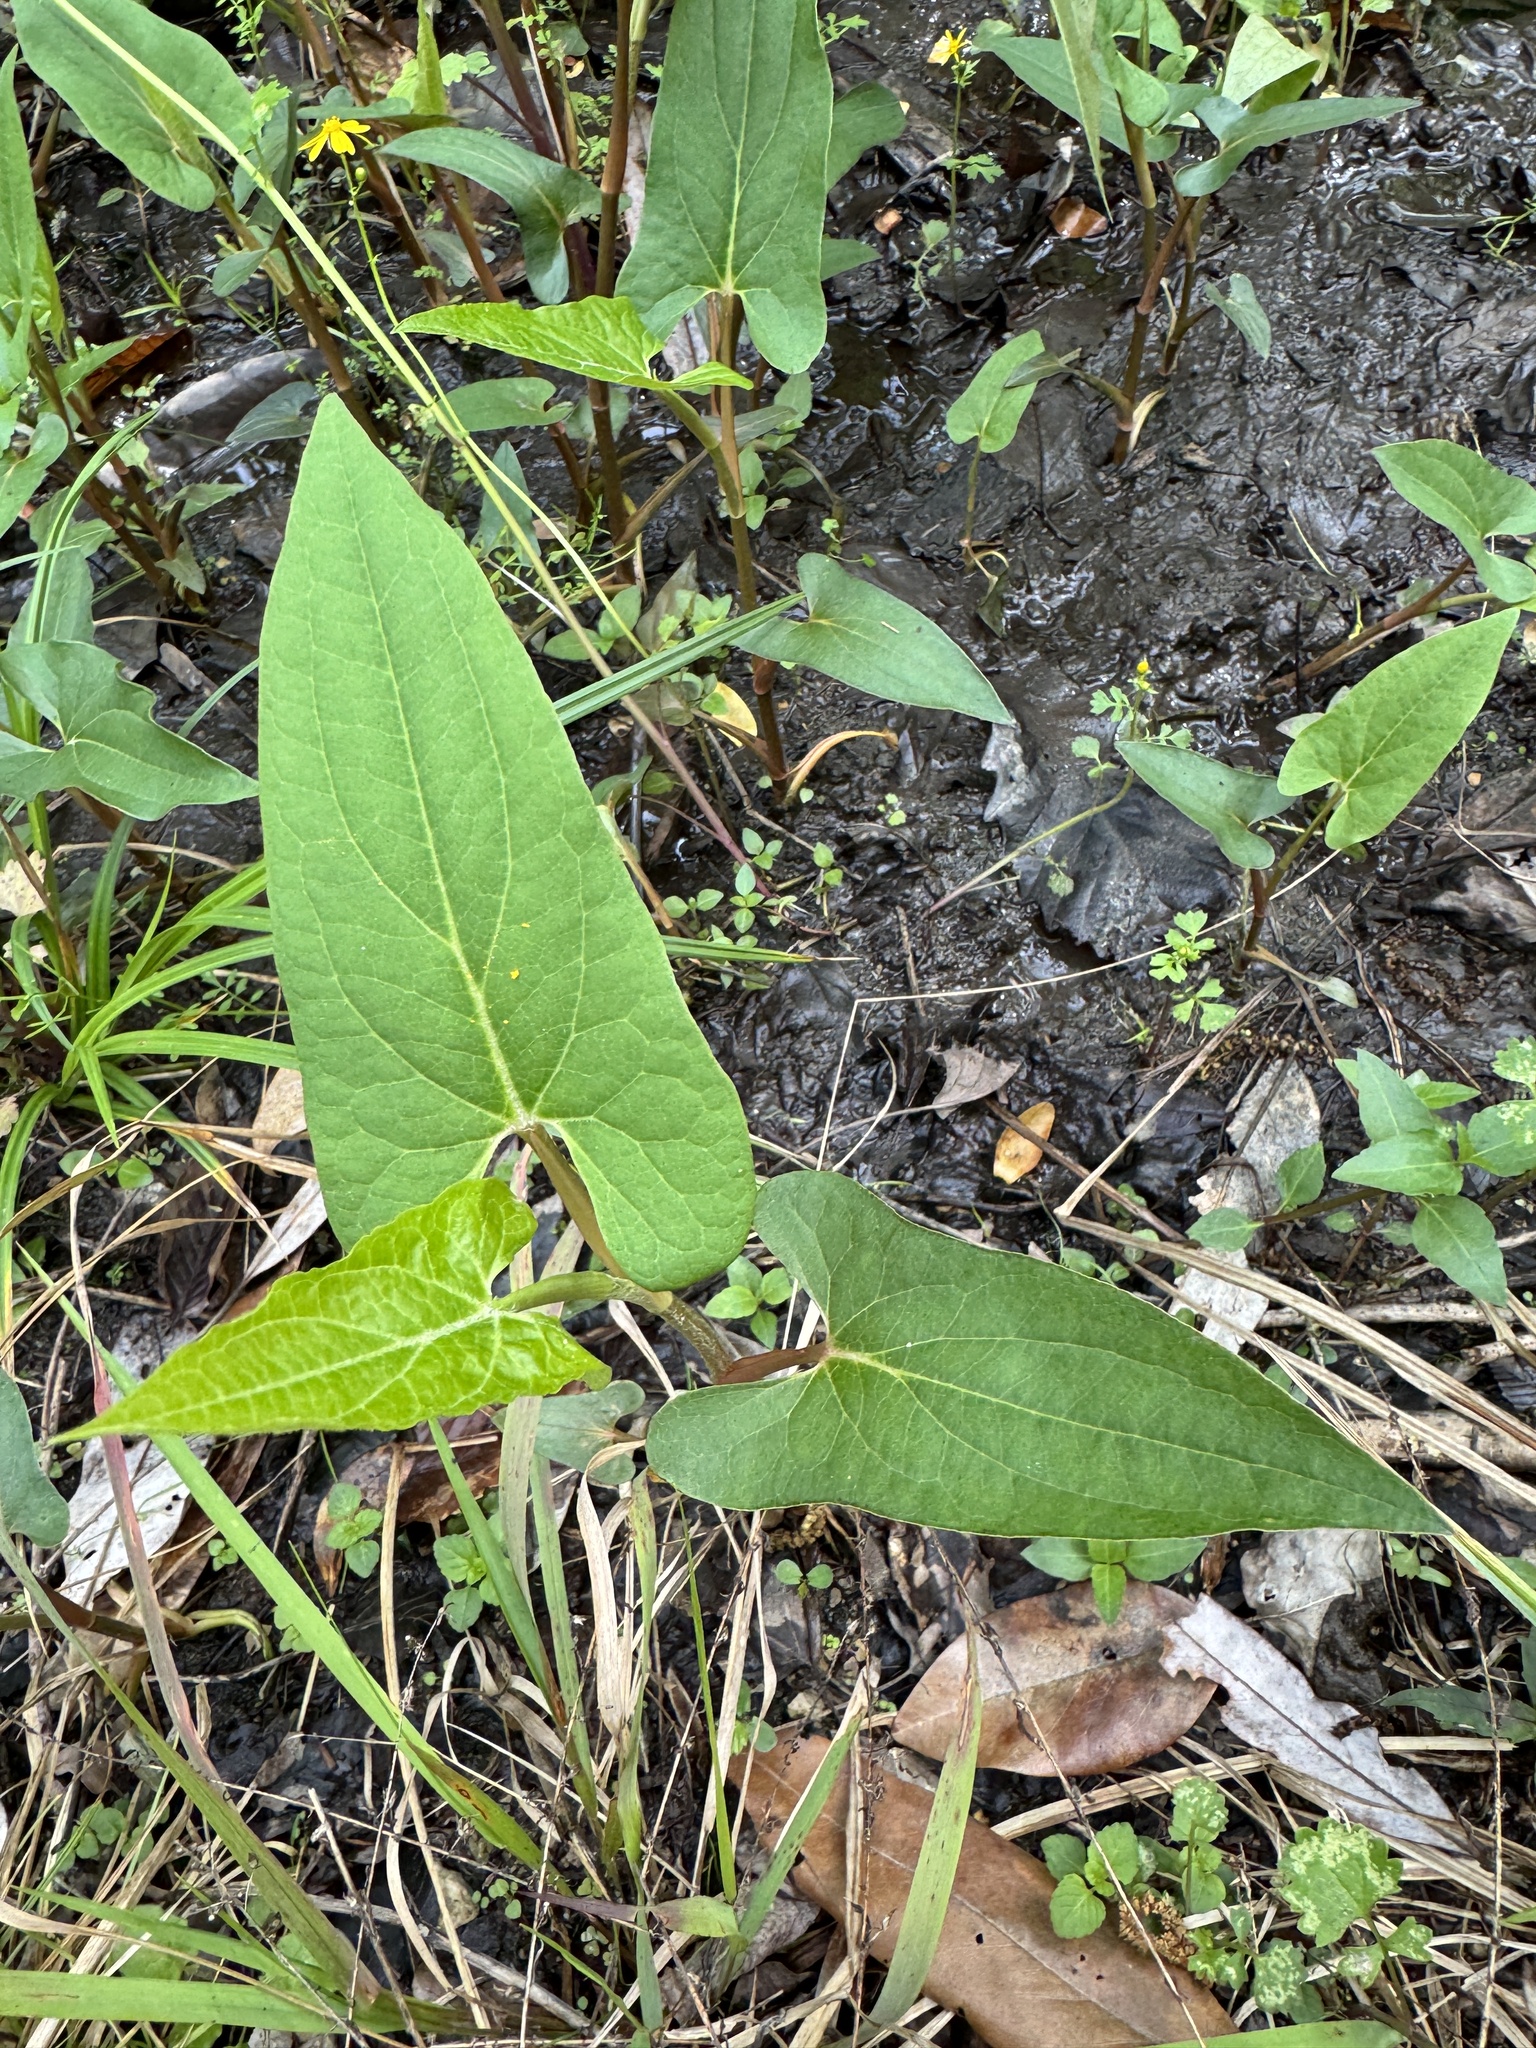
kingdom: Plantae
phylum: Tracheophyta
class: Magnoliopsida
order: Piperales
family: Saururaceae
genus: Saururus
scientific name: Saururus cernuus
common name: Lizard's-tail
